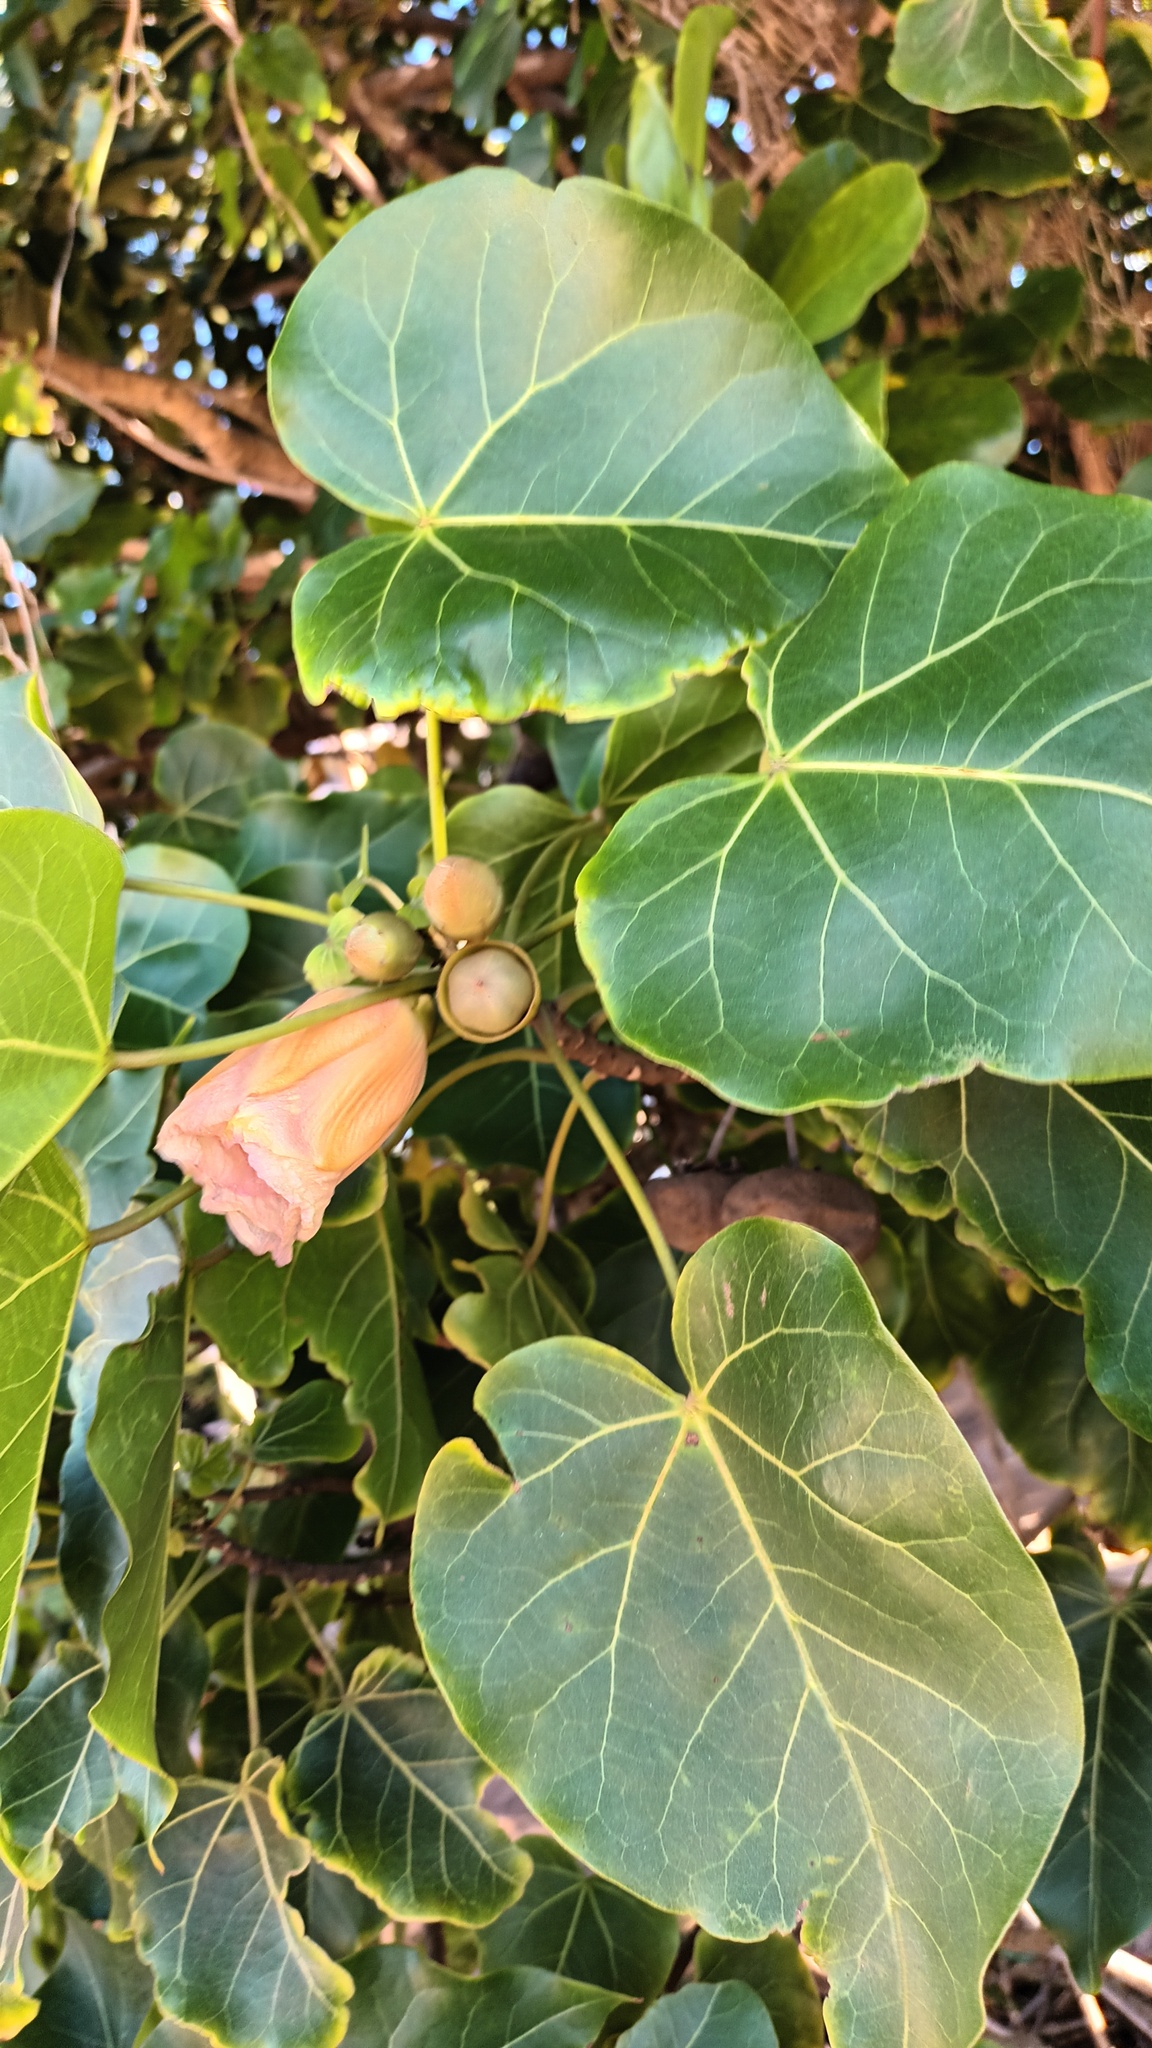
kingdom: Plantae
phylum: Tracheophyta
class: Magnoliopsida
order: Malvales
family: Malvaceae
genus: Thespesia
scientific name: Thespesia populnea
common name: Seaside mahoe
